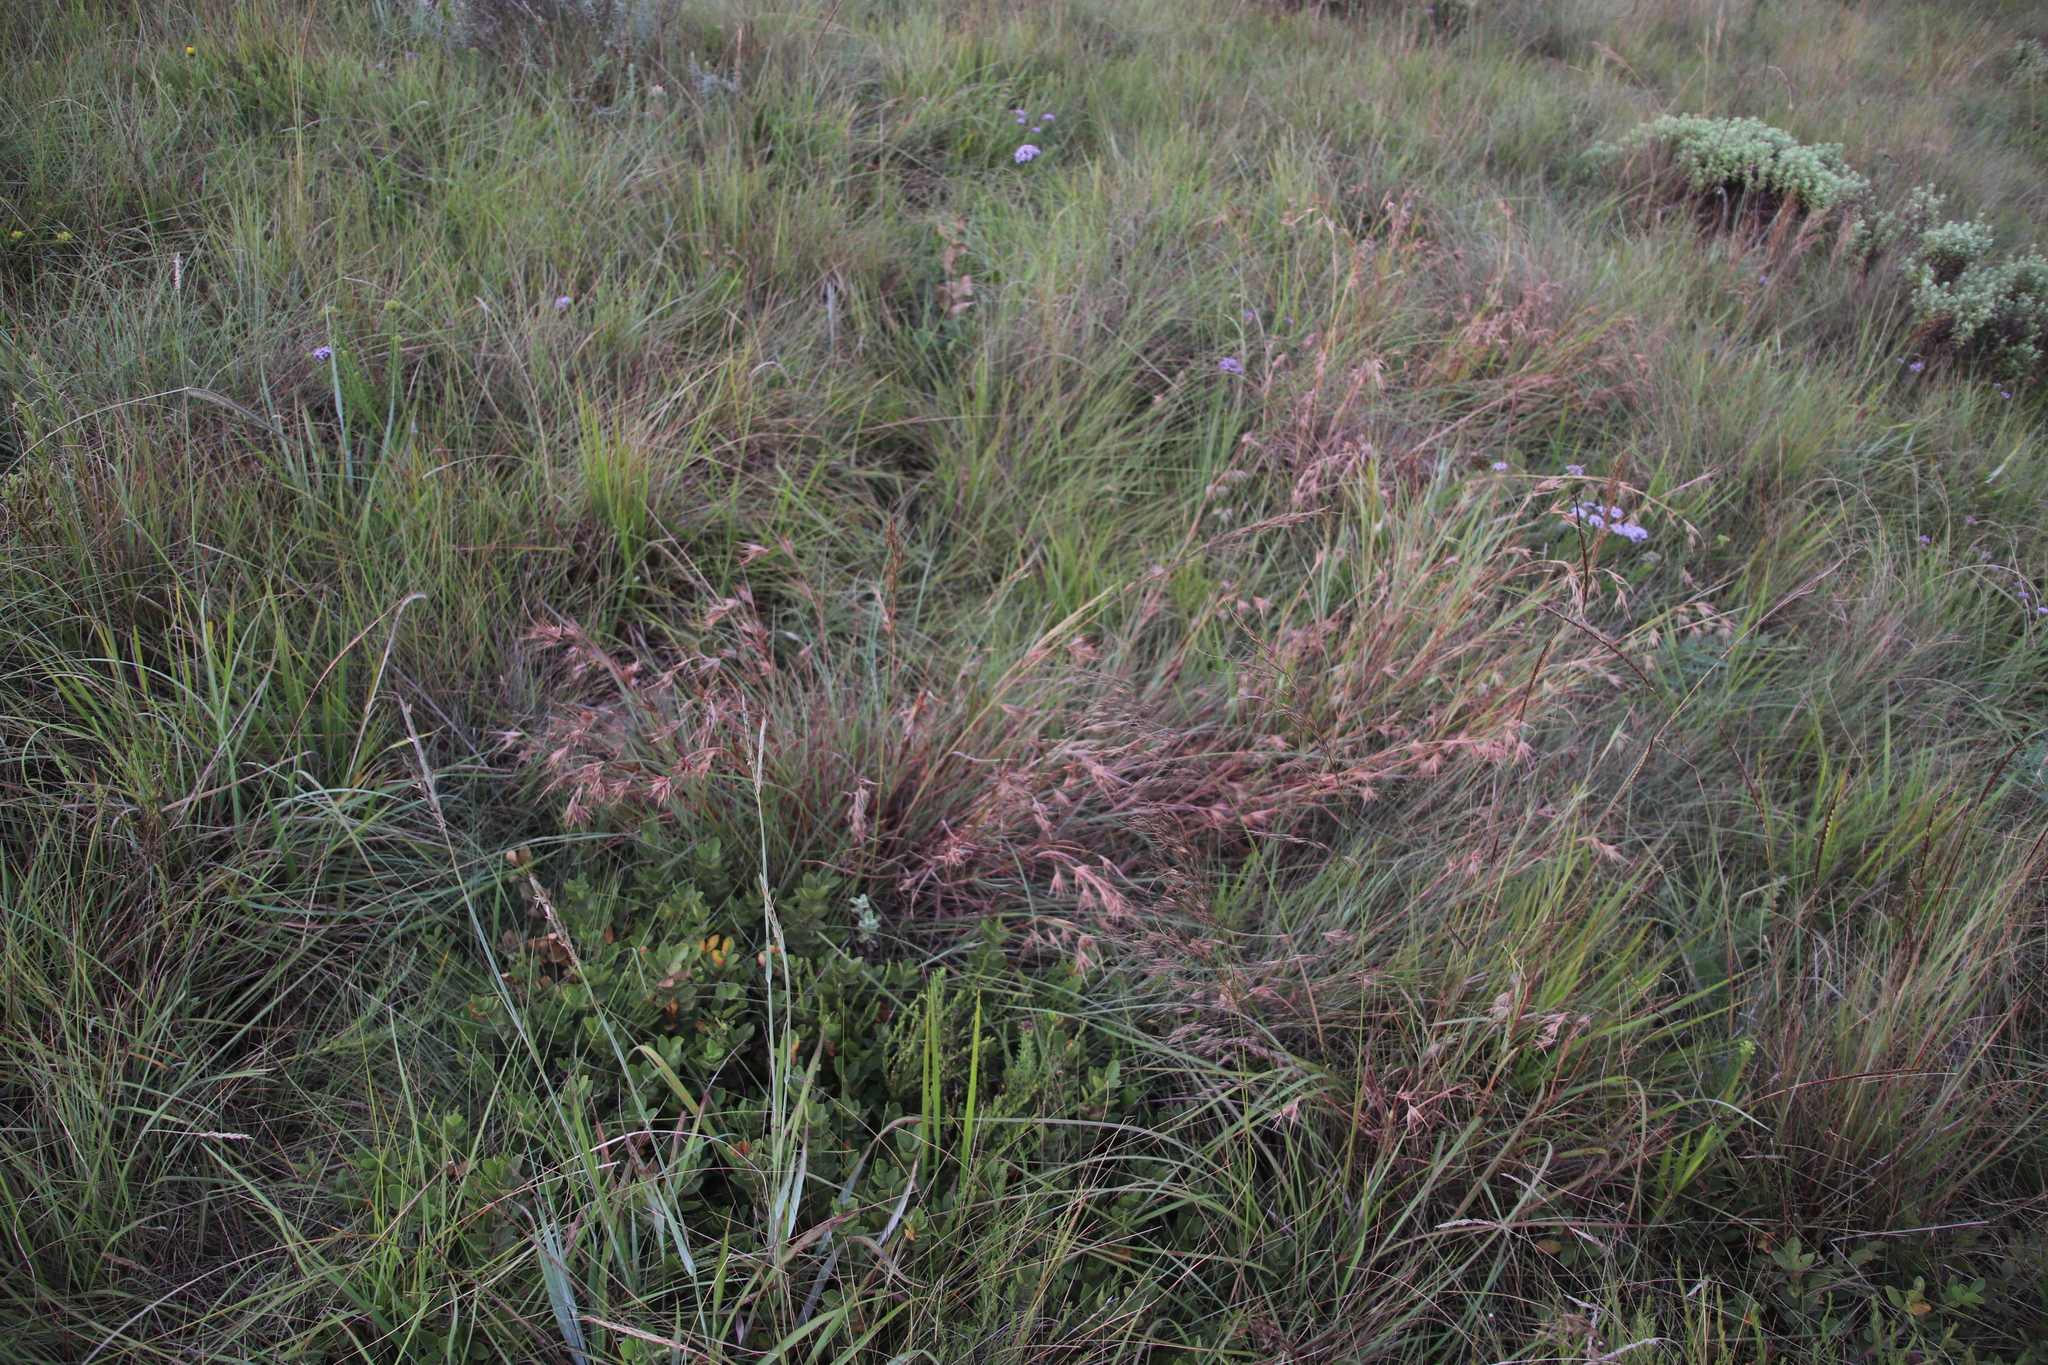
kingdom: Plantae
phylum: Tracheophyta
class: Liliopsida
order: Poales
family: Poaceae
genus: Themeda
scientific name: Themeda triandra
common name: Kangaroo grass
